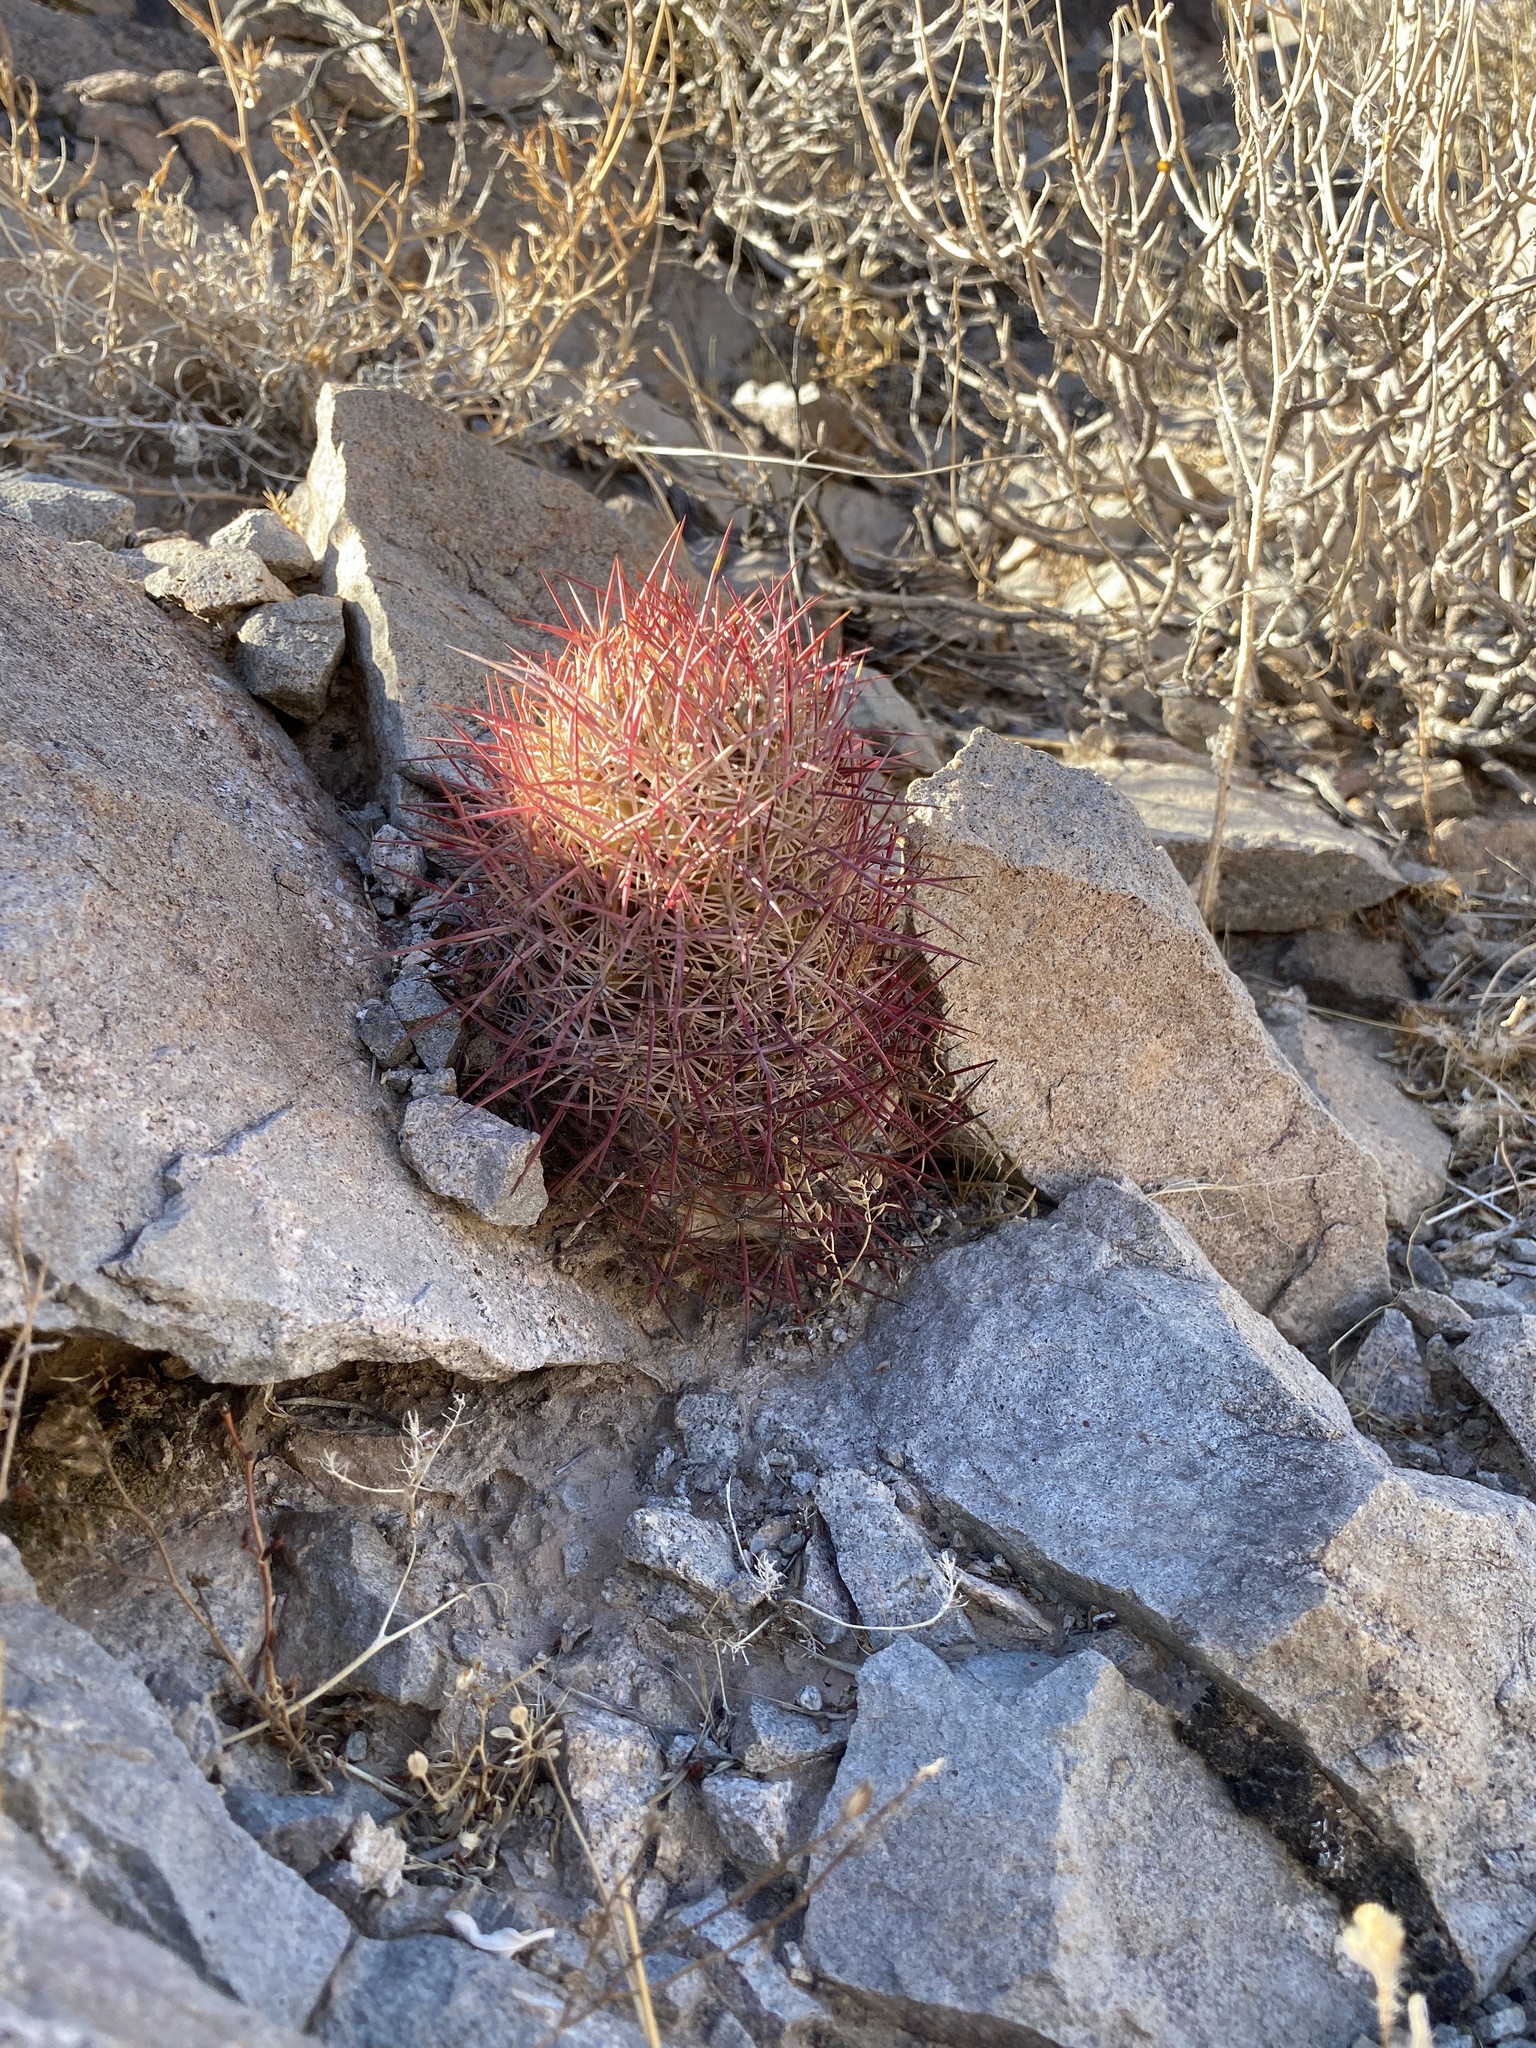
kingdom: Plantae
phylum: Tracheophyta
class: Magnoliopsida
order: Caryophyllales
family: Cactaceae
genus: Sclerocactus
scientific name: Sclerocactus johnsonii
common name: Eight-spine fishhook cactus
